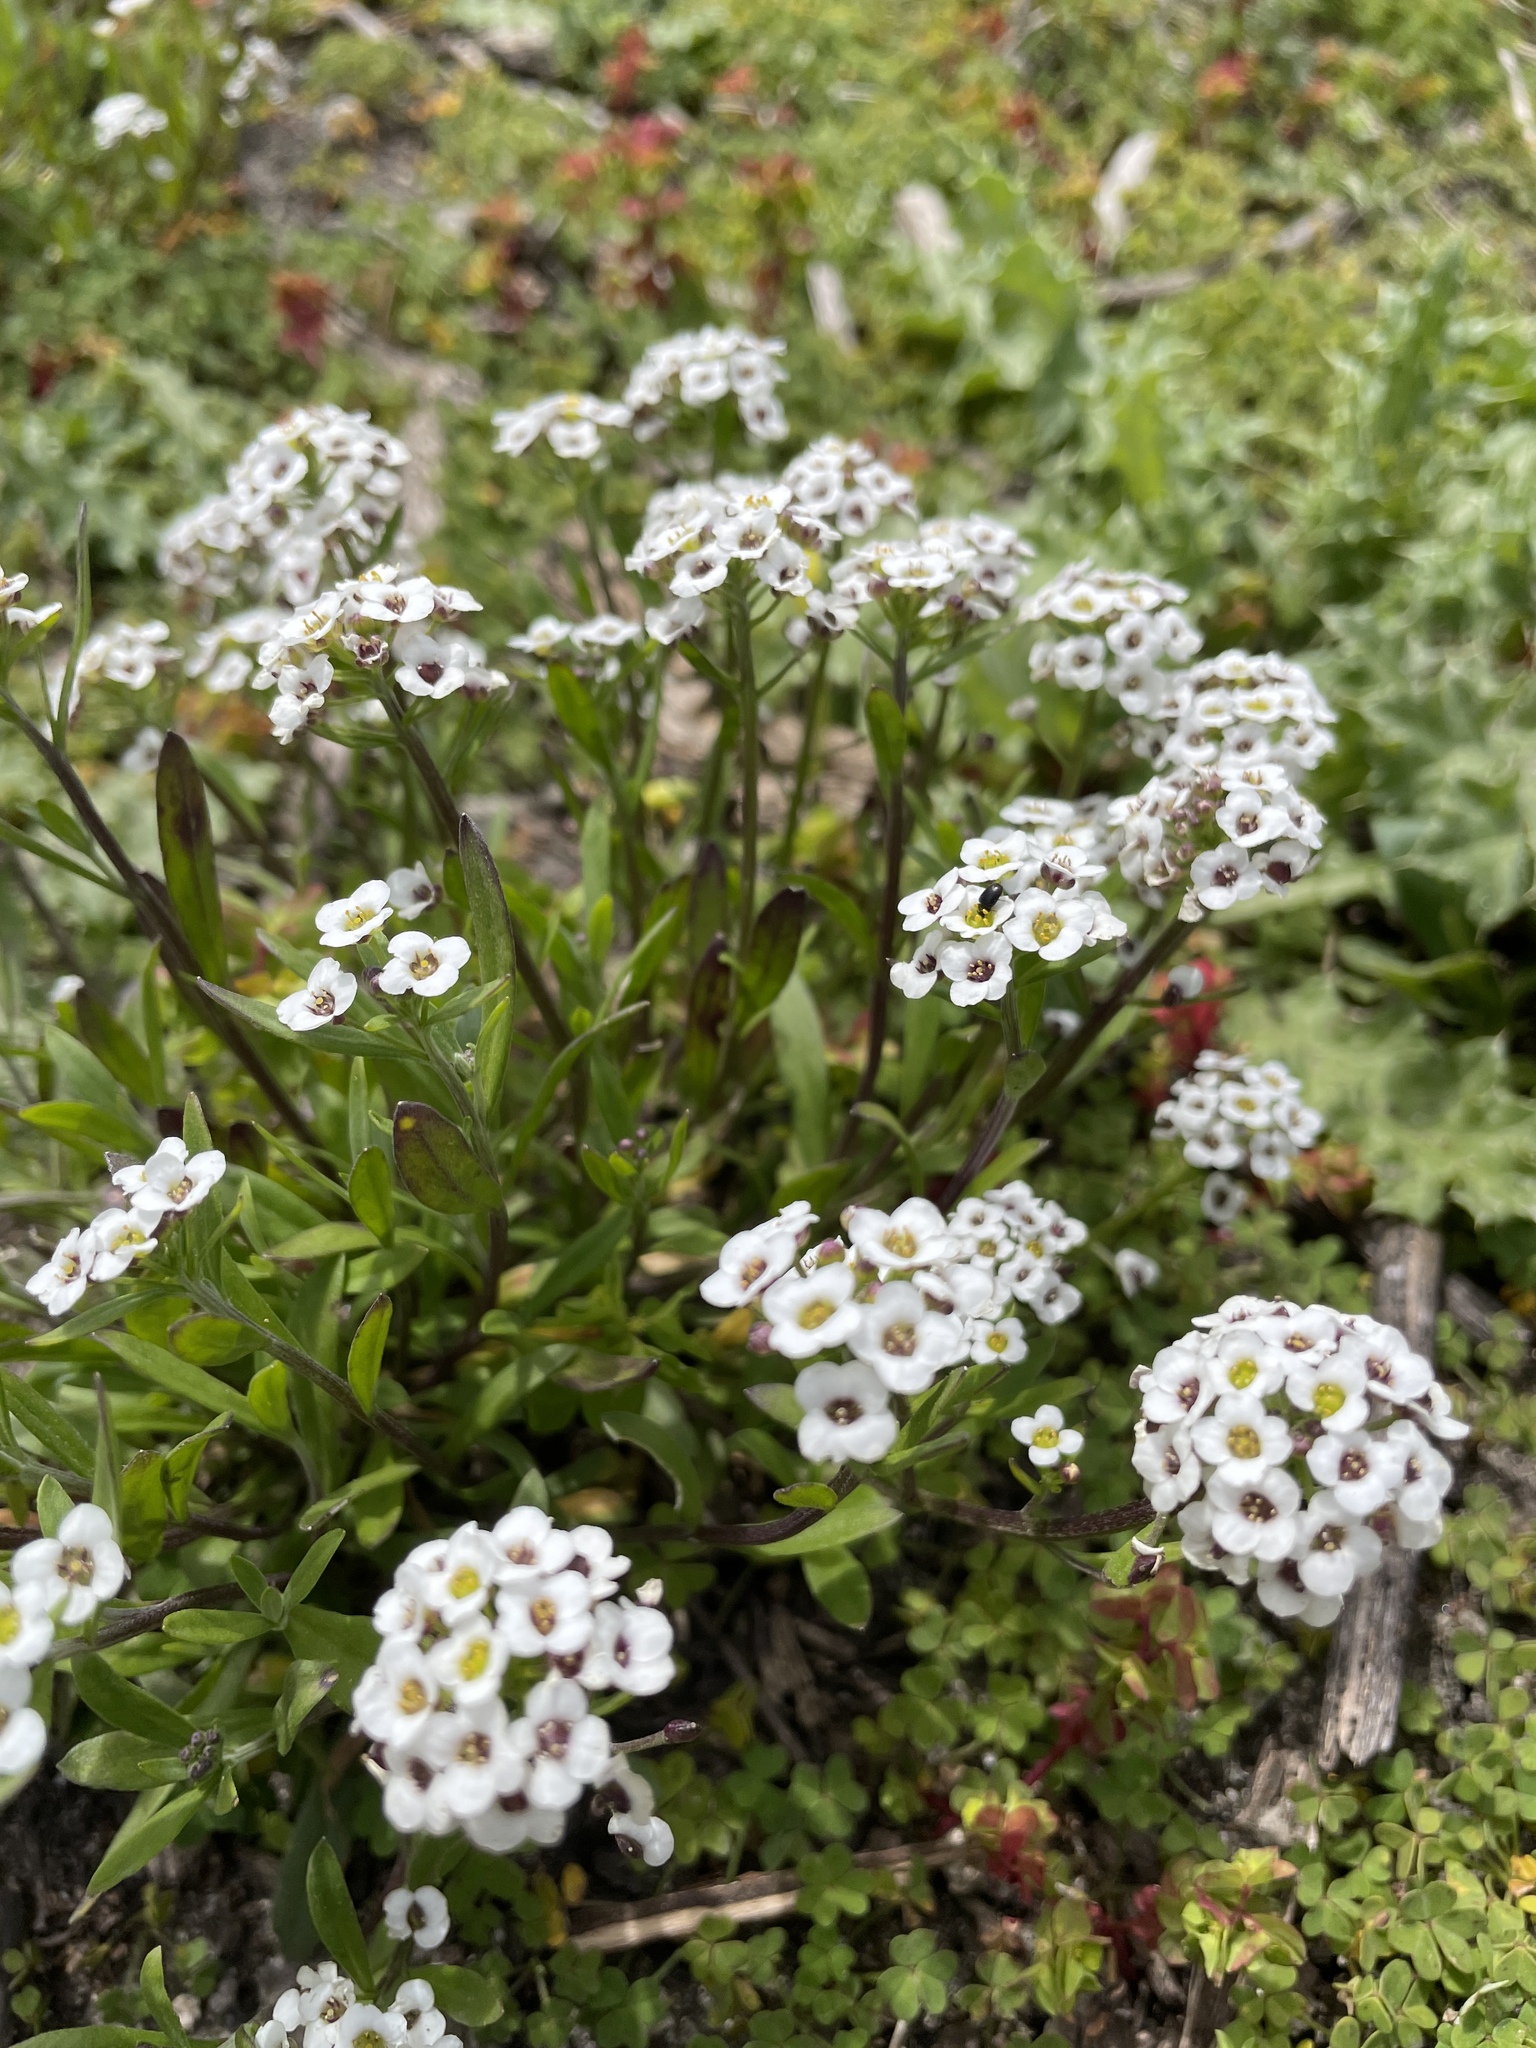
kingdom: Plantae
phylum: Tracheophyta
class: Magnoliopsida
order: Brassicales
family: Brassicaceae
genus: Lobularia
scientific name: Lobularia maritima
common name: Sweet alison
